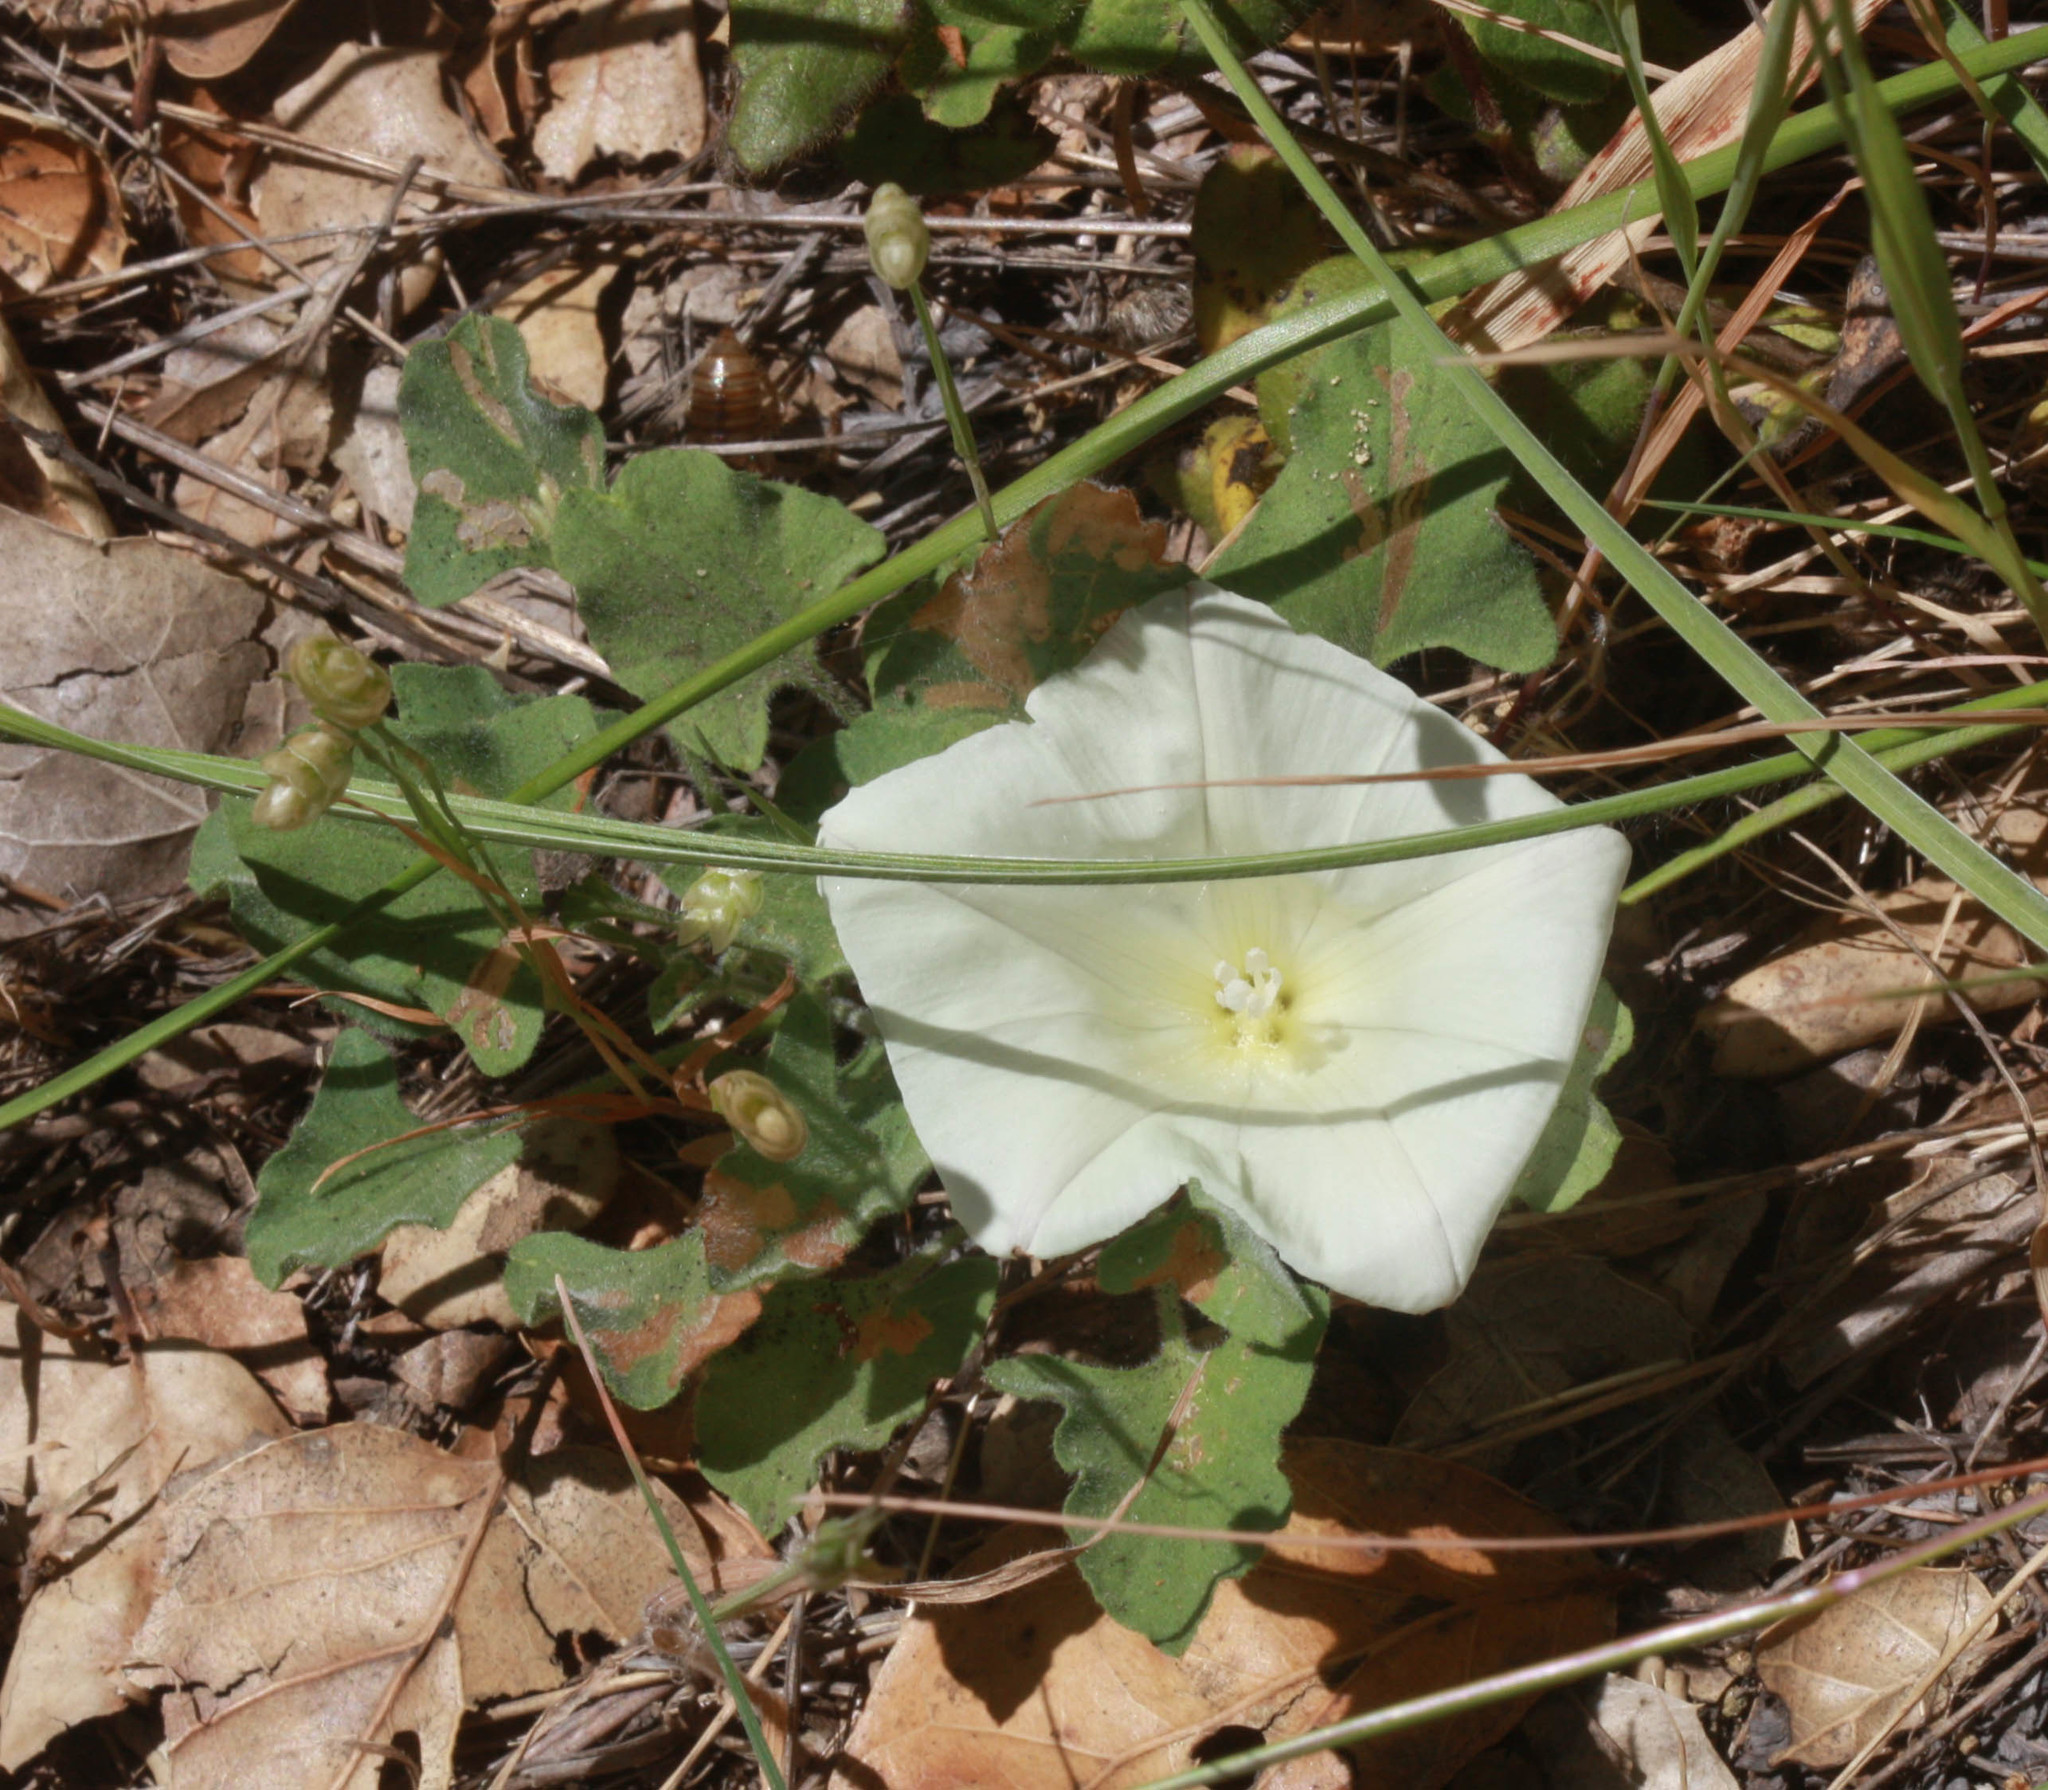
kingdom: Plantae
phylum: Tracheophyta
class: Magnoliopsida
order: Solanales
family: Convolvulaceae
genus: Calystegia
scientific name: Calystegia subacaulis
